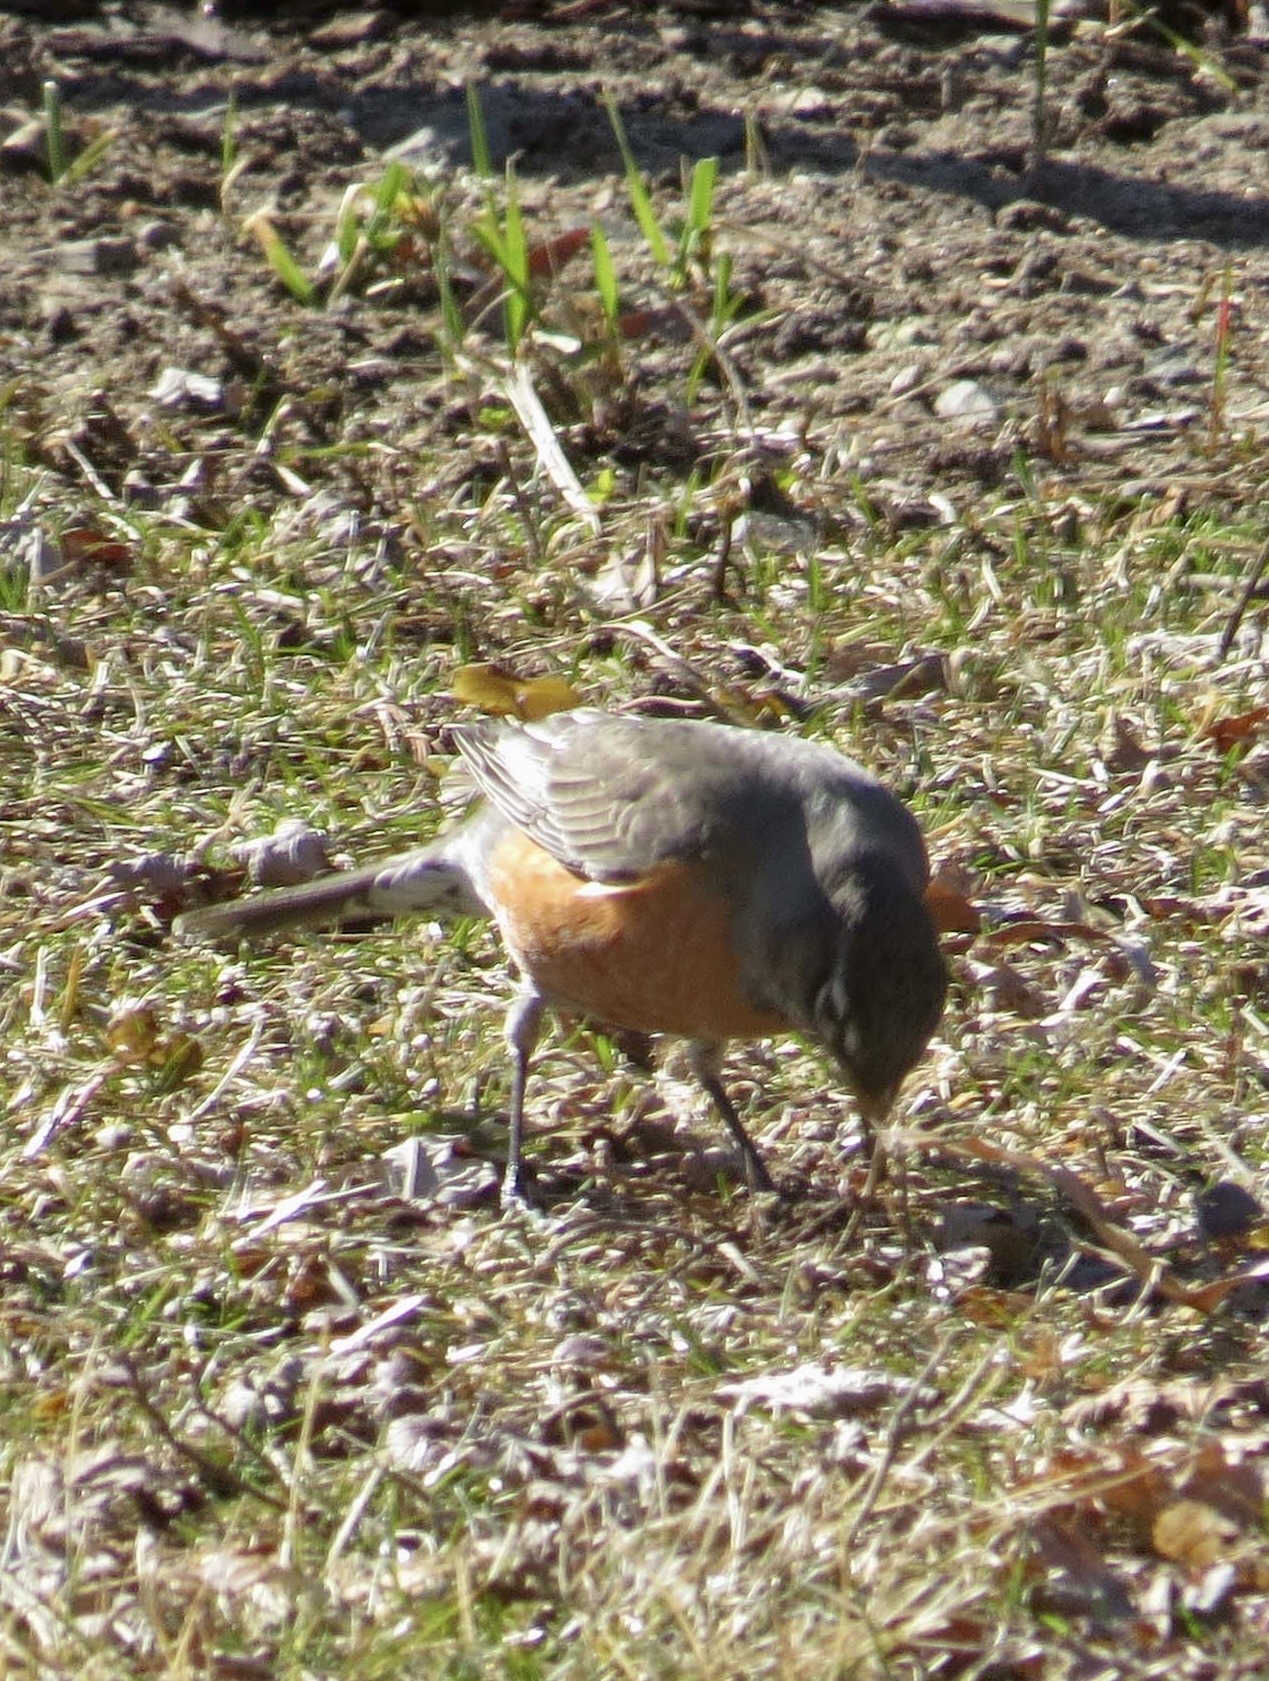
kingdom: Animalia
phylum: Chordata
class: Aves
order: Passeriformes
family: Turdidae
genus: Turdus
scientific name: Turdus migratorius
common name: American robin
